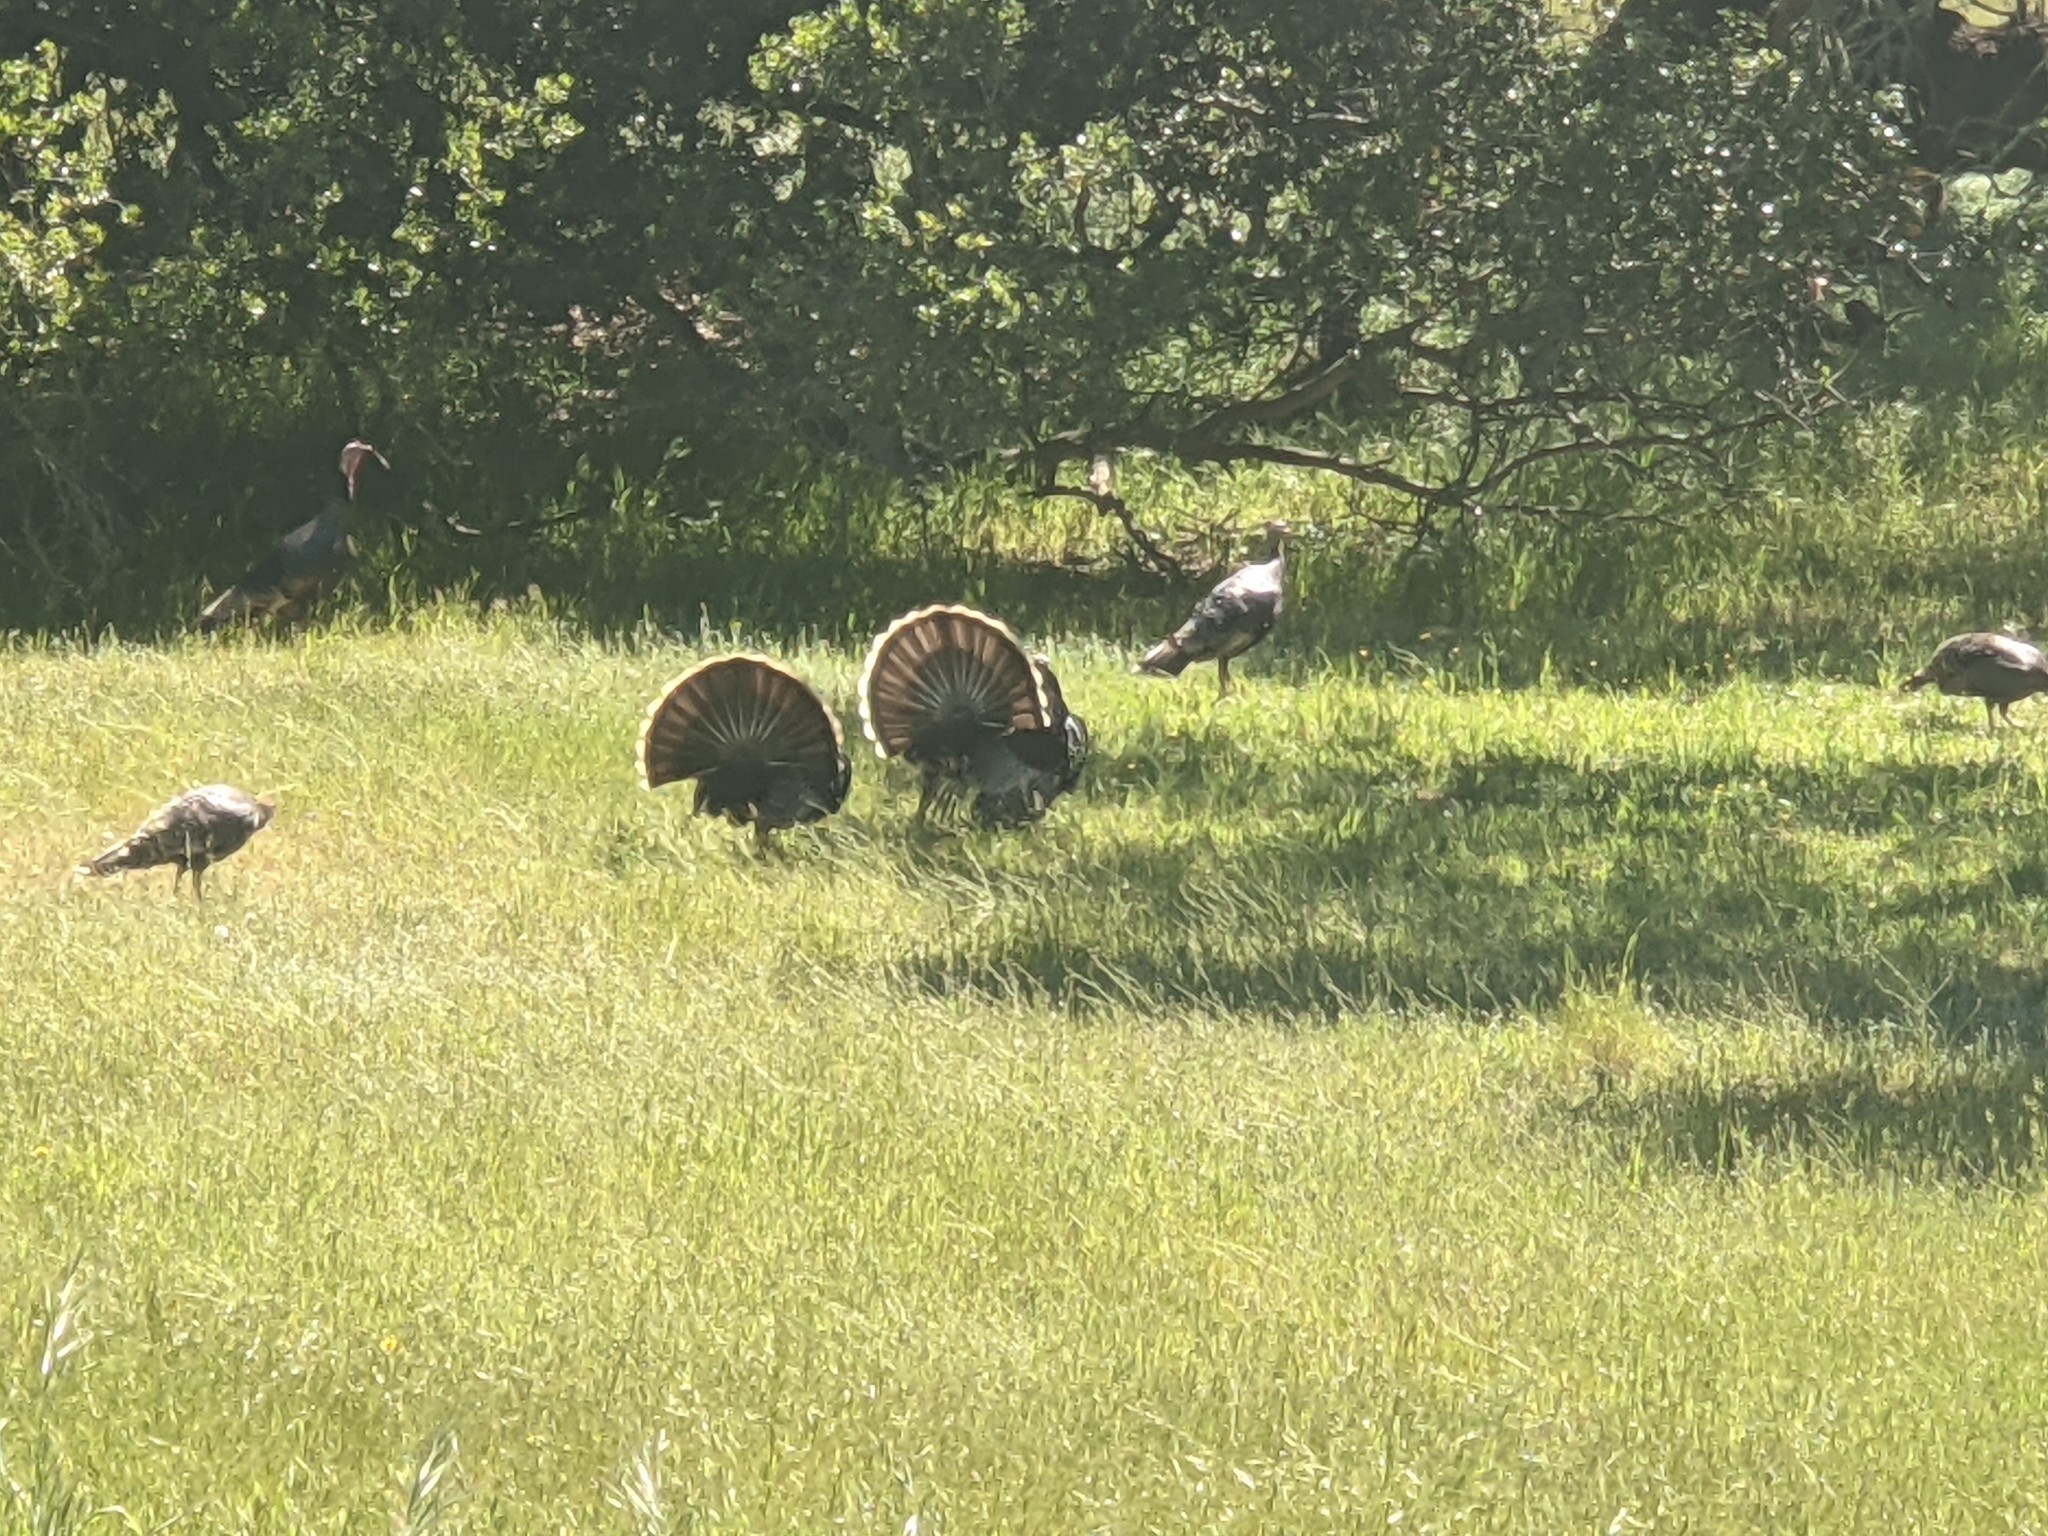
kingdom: Animalia
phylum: Chordata
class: Aves
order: Galliformes
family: Phasianidae
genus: Meleagris
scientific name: Meleagris gallopavo
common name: Wild turkey
